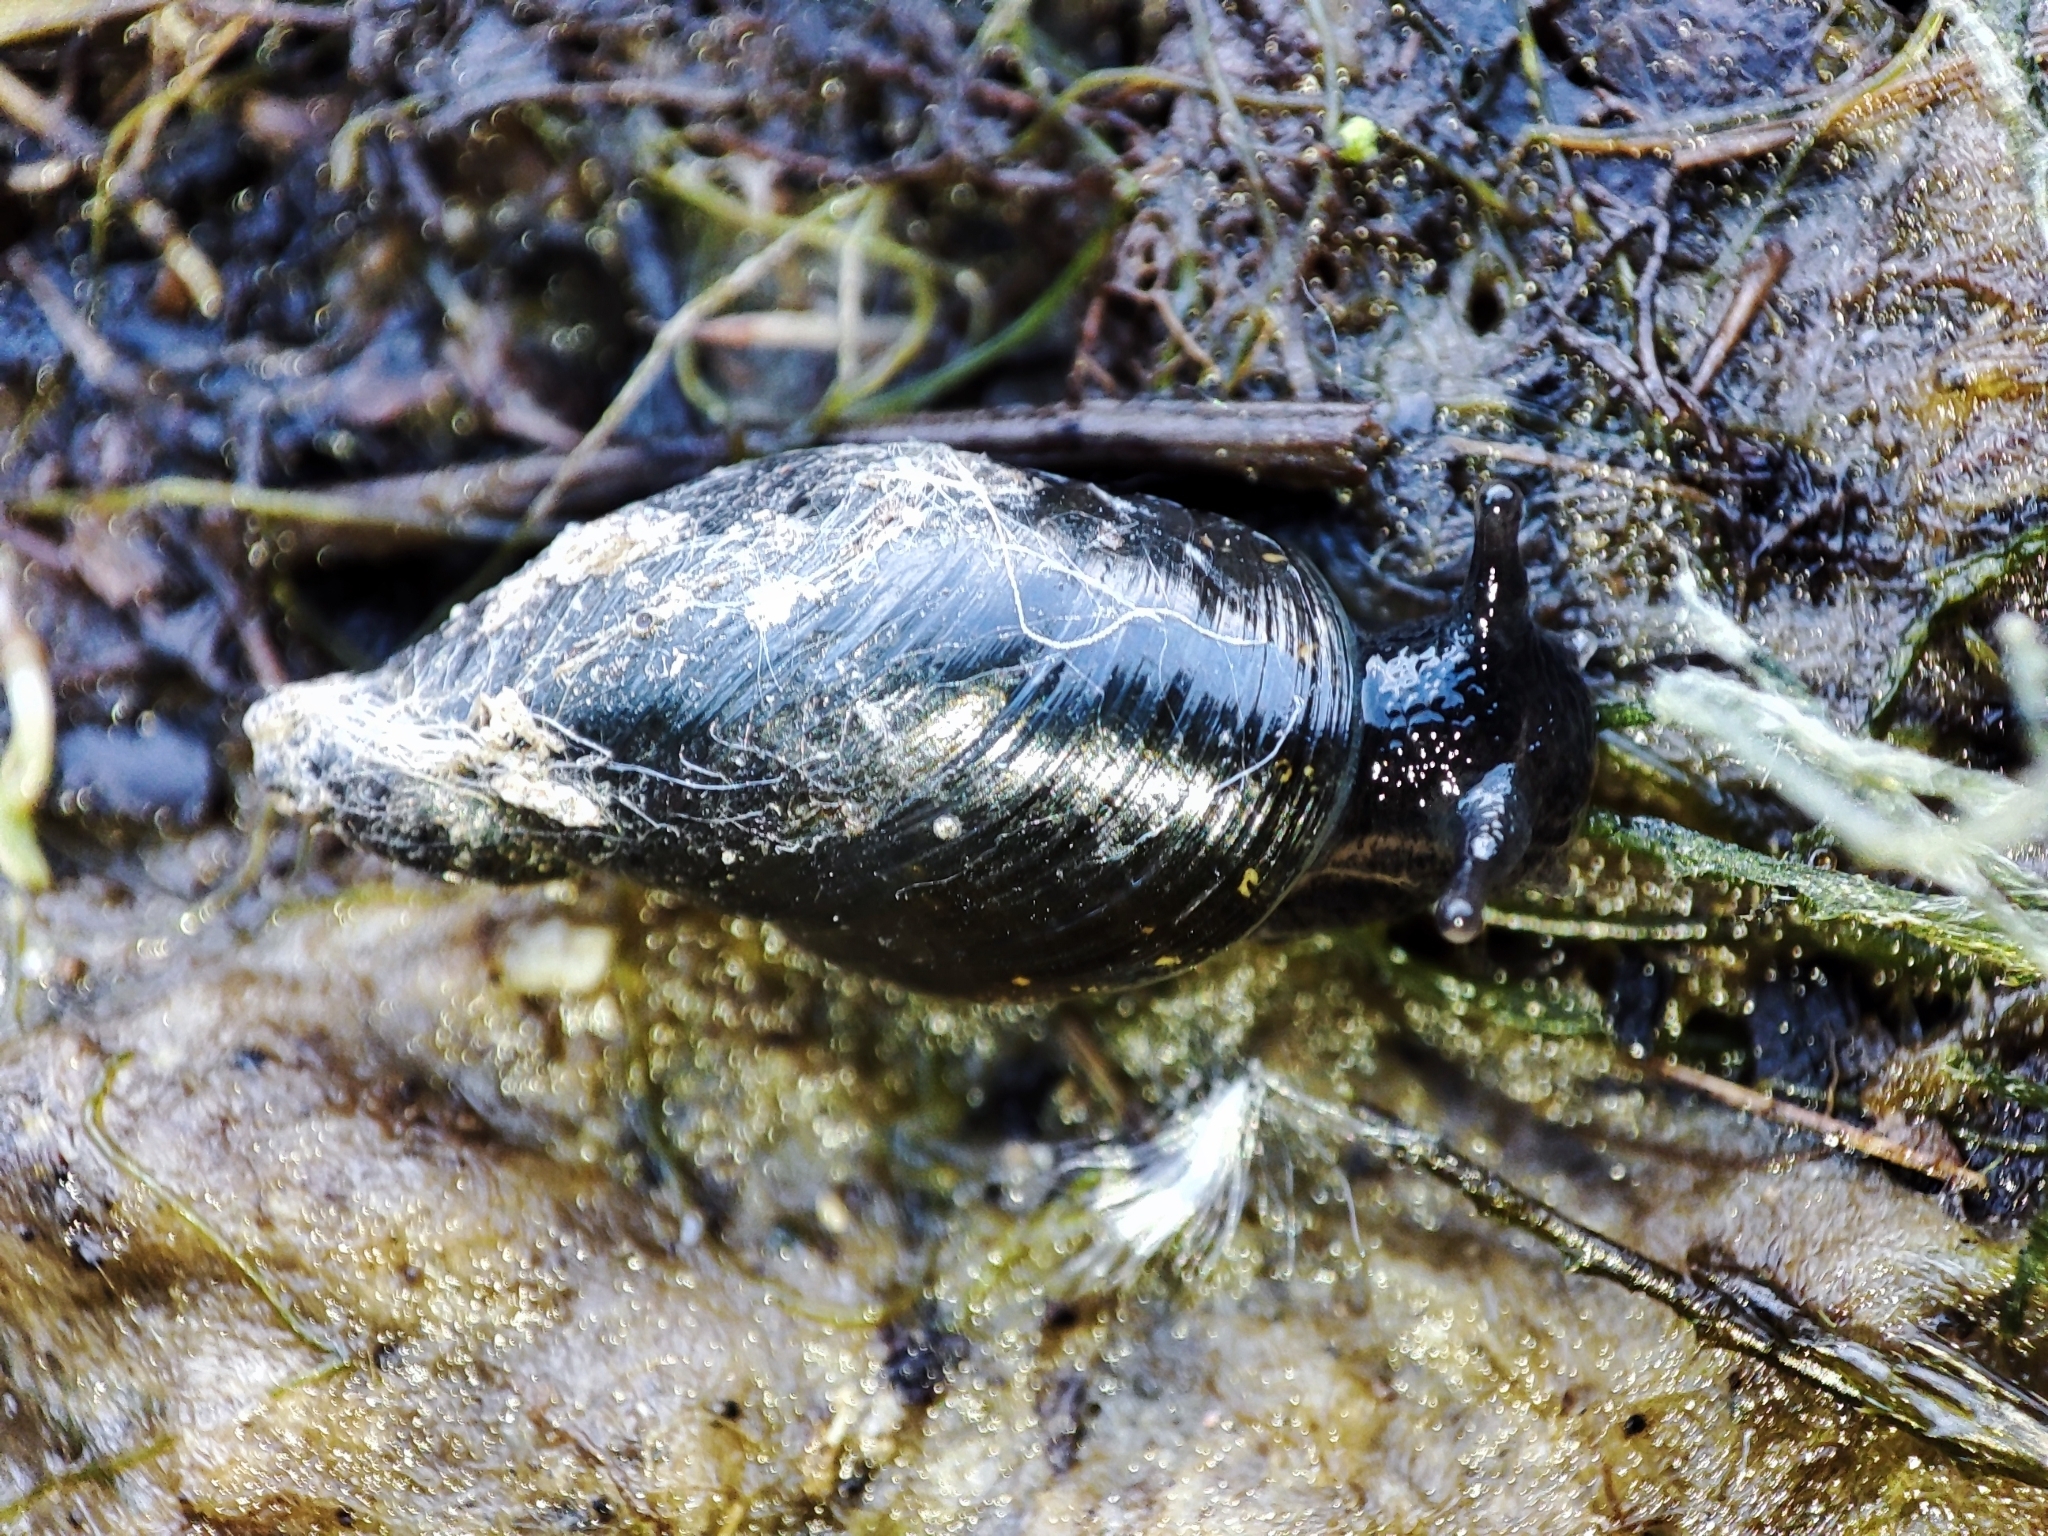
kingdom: Animalia
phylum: Mollusca
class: Gastropoda
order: Stylommatophora
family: Succineidae
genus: Oxyloma
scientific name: Oxyloma
